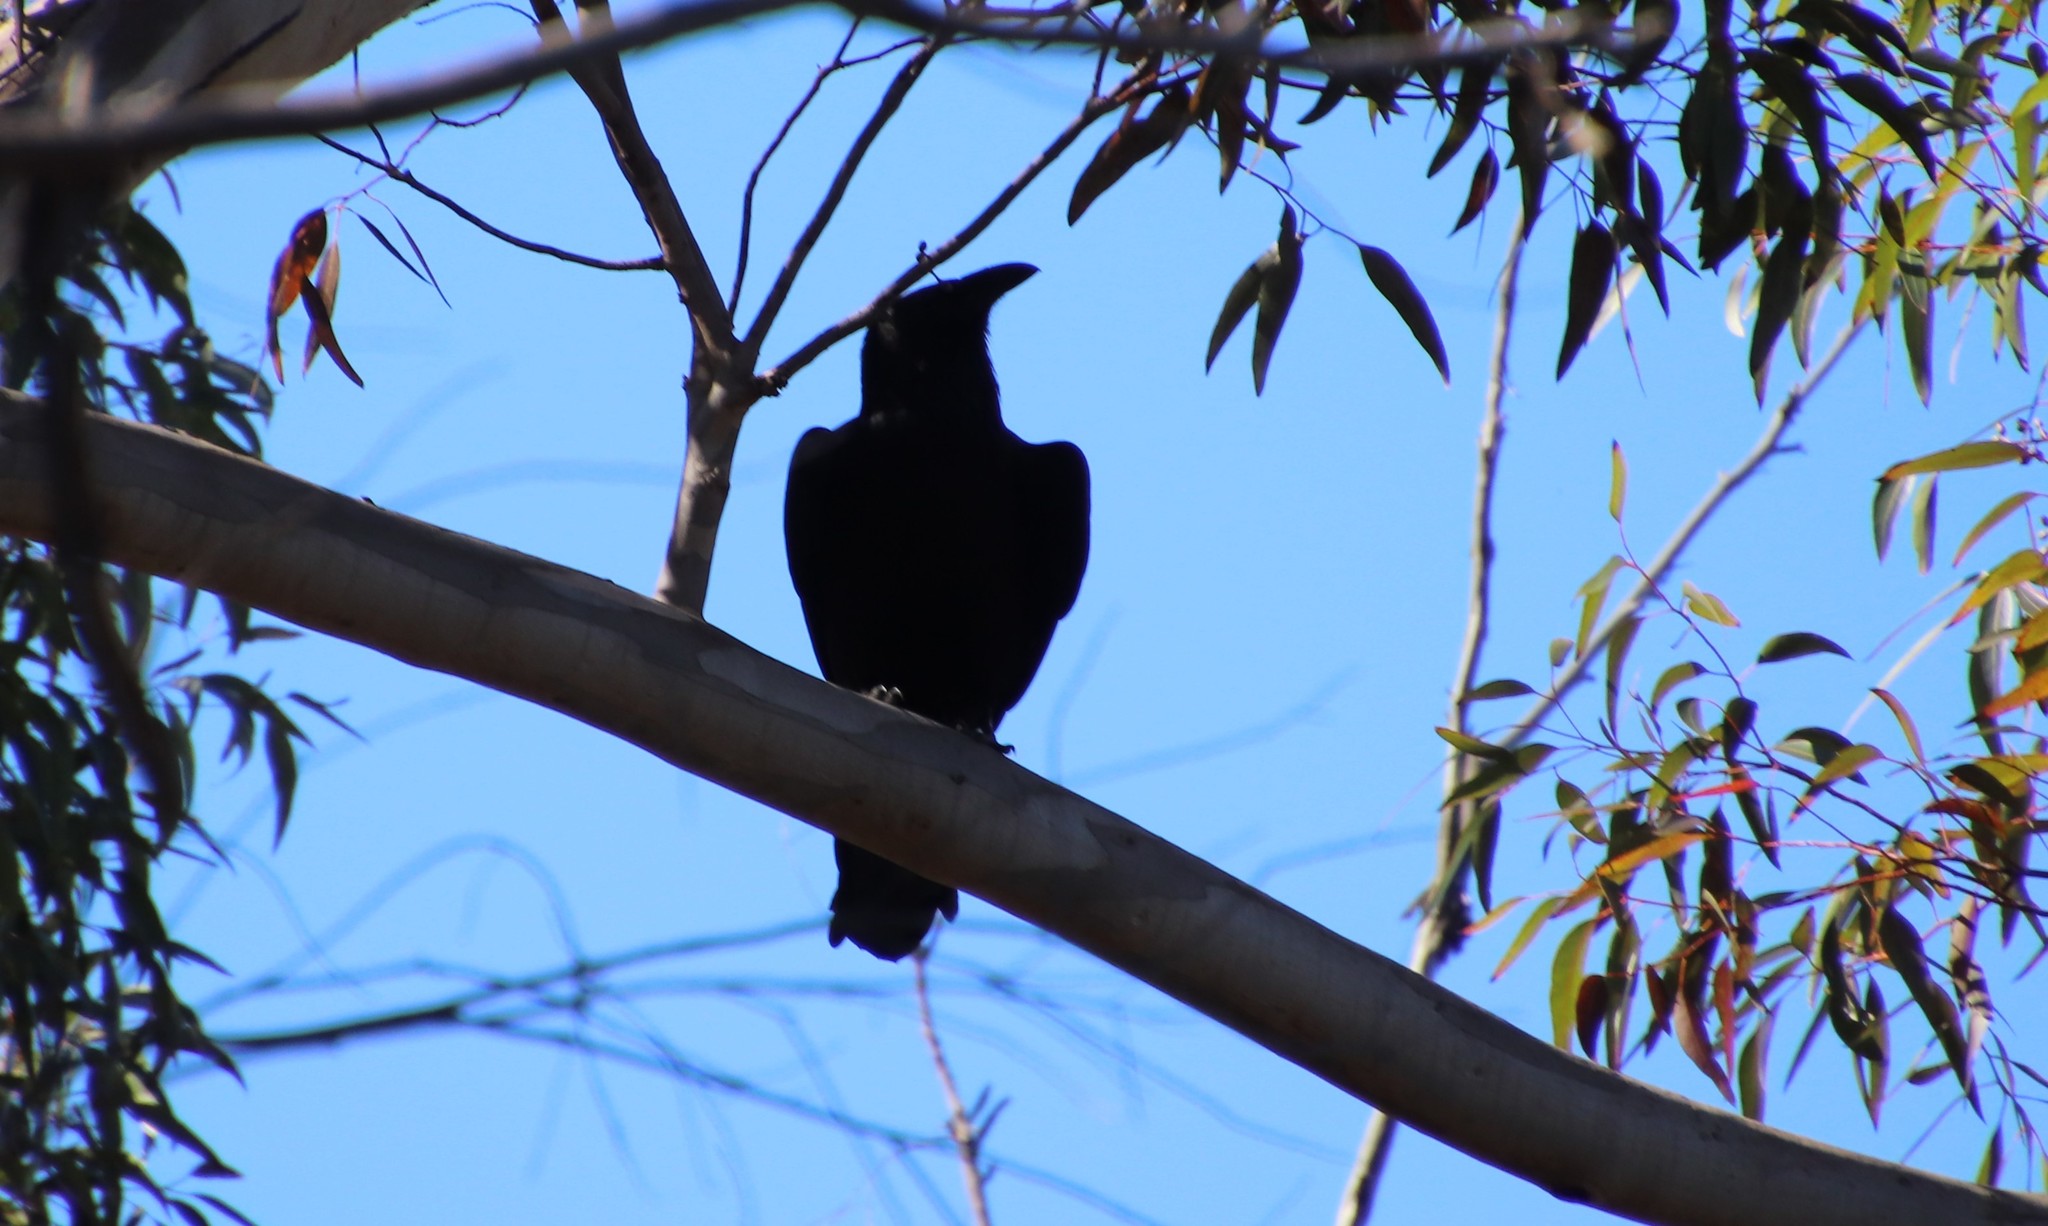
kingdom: Animalia
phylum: Chordata
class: Aves
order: Passeriformes
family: Corvidae
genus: Corvus
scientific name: Corvus corax
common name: Common raven
